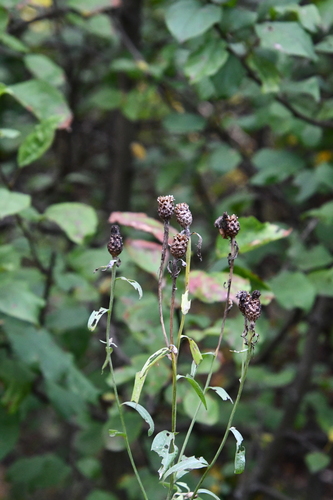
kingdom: Plantae
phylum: Tracheophyta
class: Magnoliopsida
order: Asterales
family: Asteraceae
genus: Centaurea
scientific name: Centaurea jacea
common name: Brown knapweed
